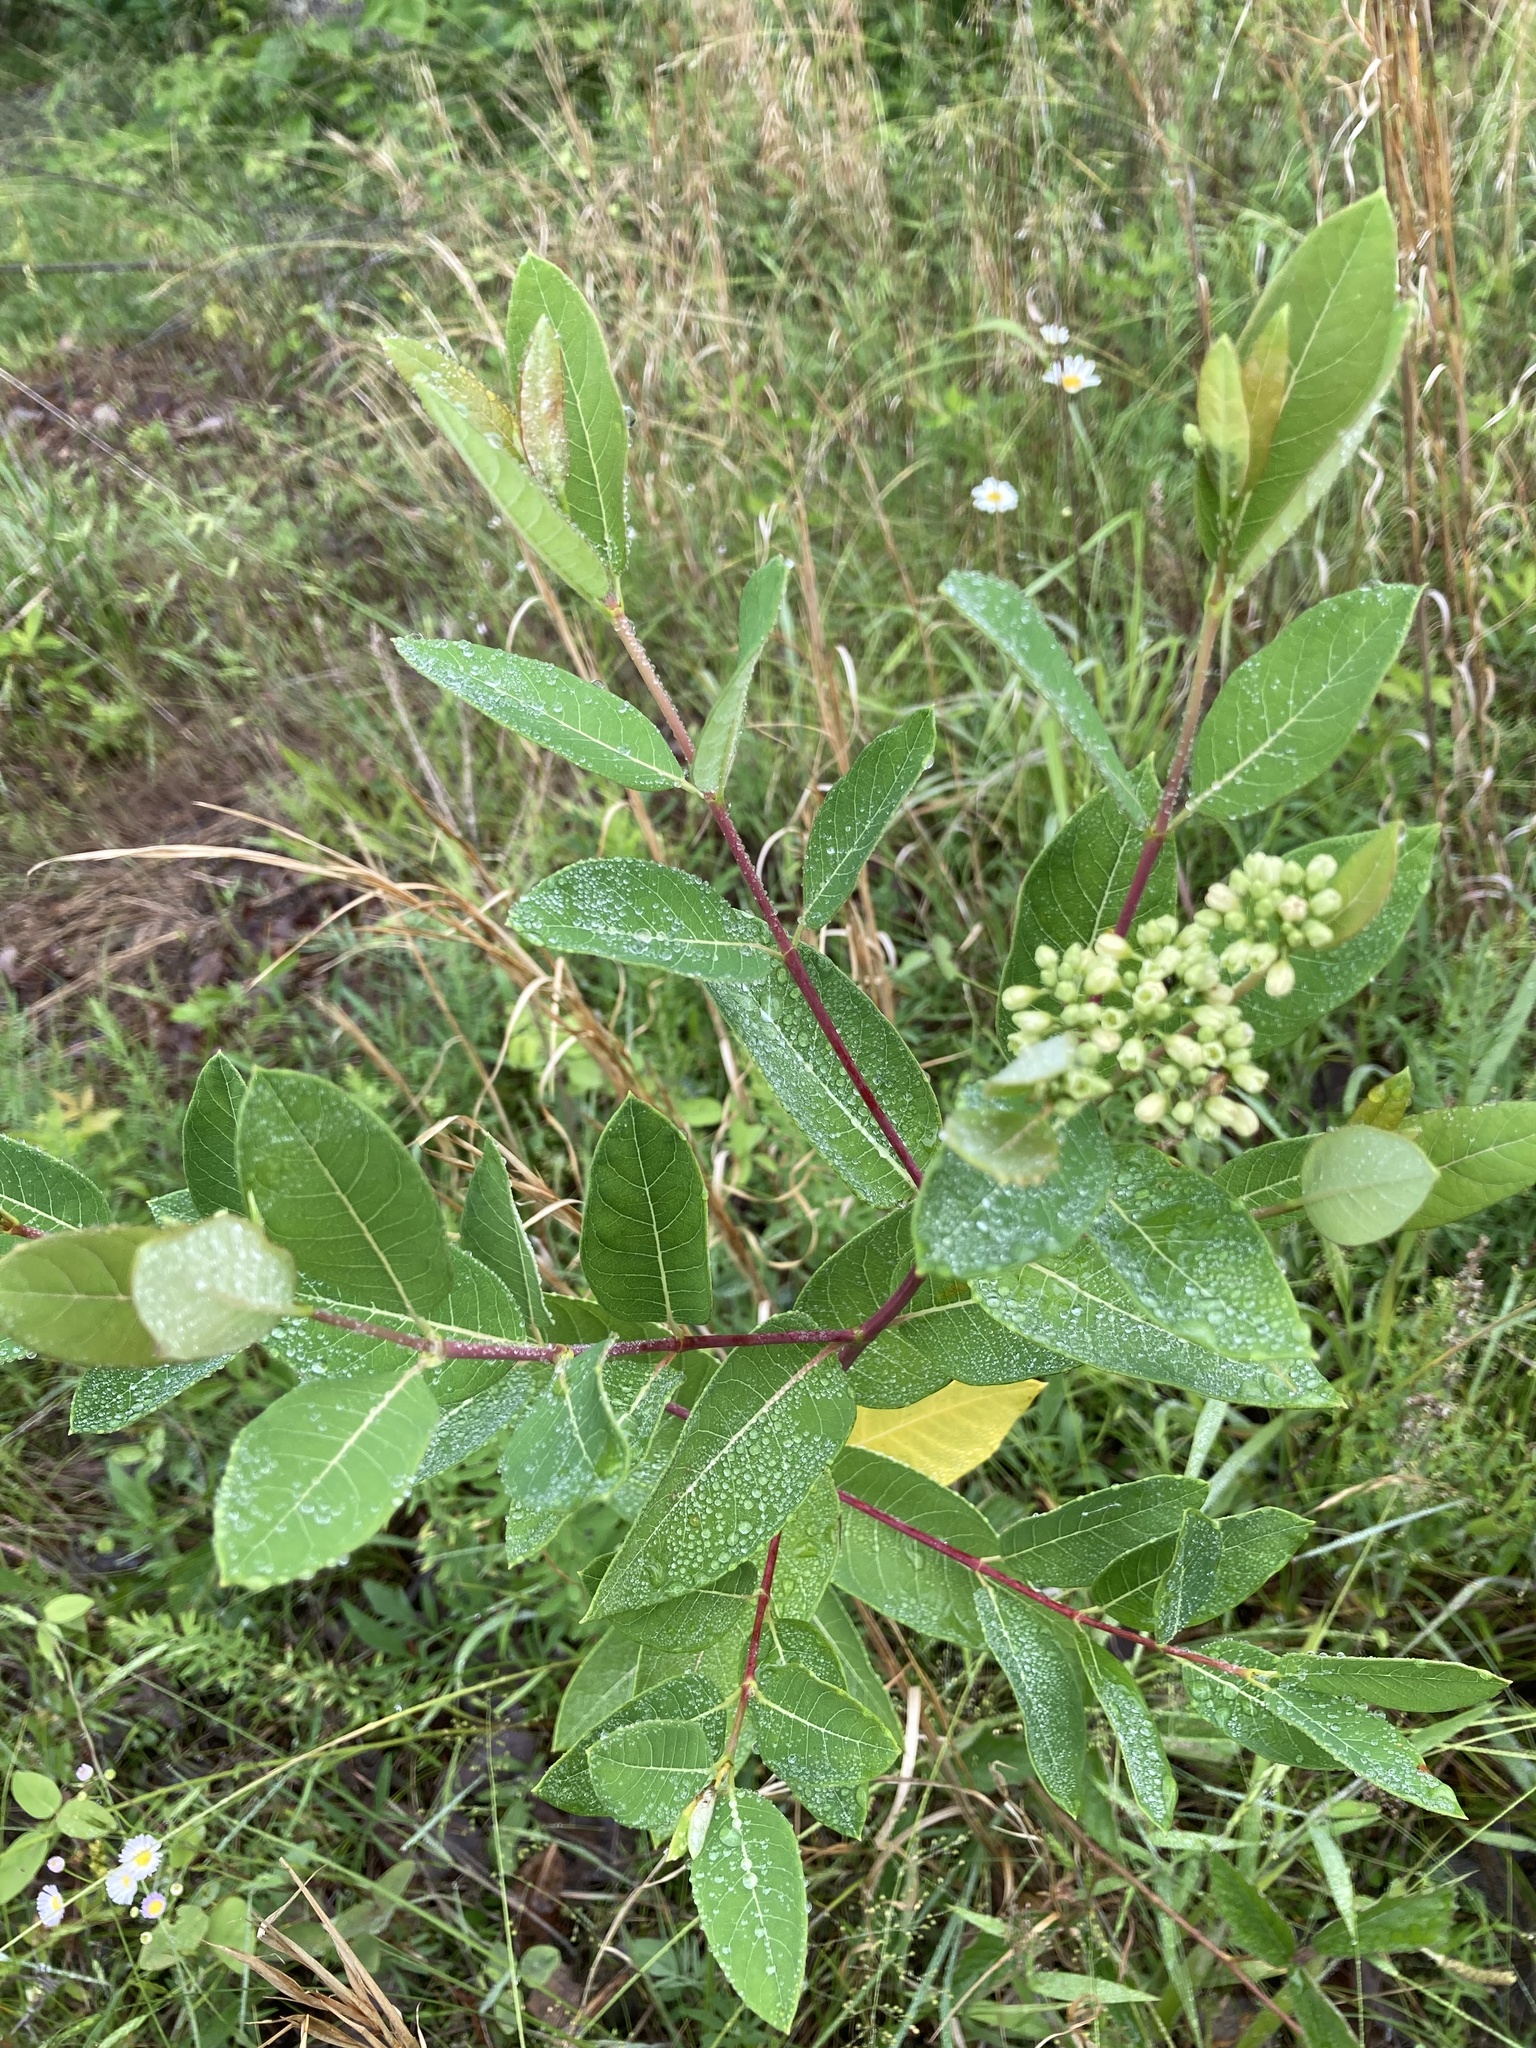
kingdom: Plantae
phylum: Tracheophyta
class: Magnoliopsida
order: Gentianales
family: Apocynaceae
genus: Apocynum
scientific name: Apocynum cannabinum
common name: Hemp dogbane
